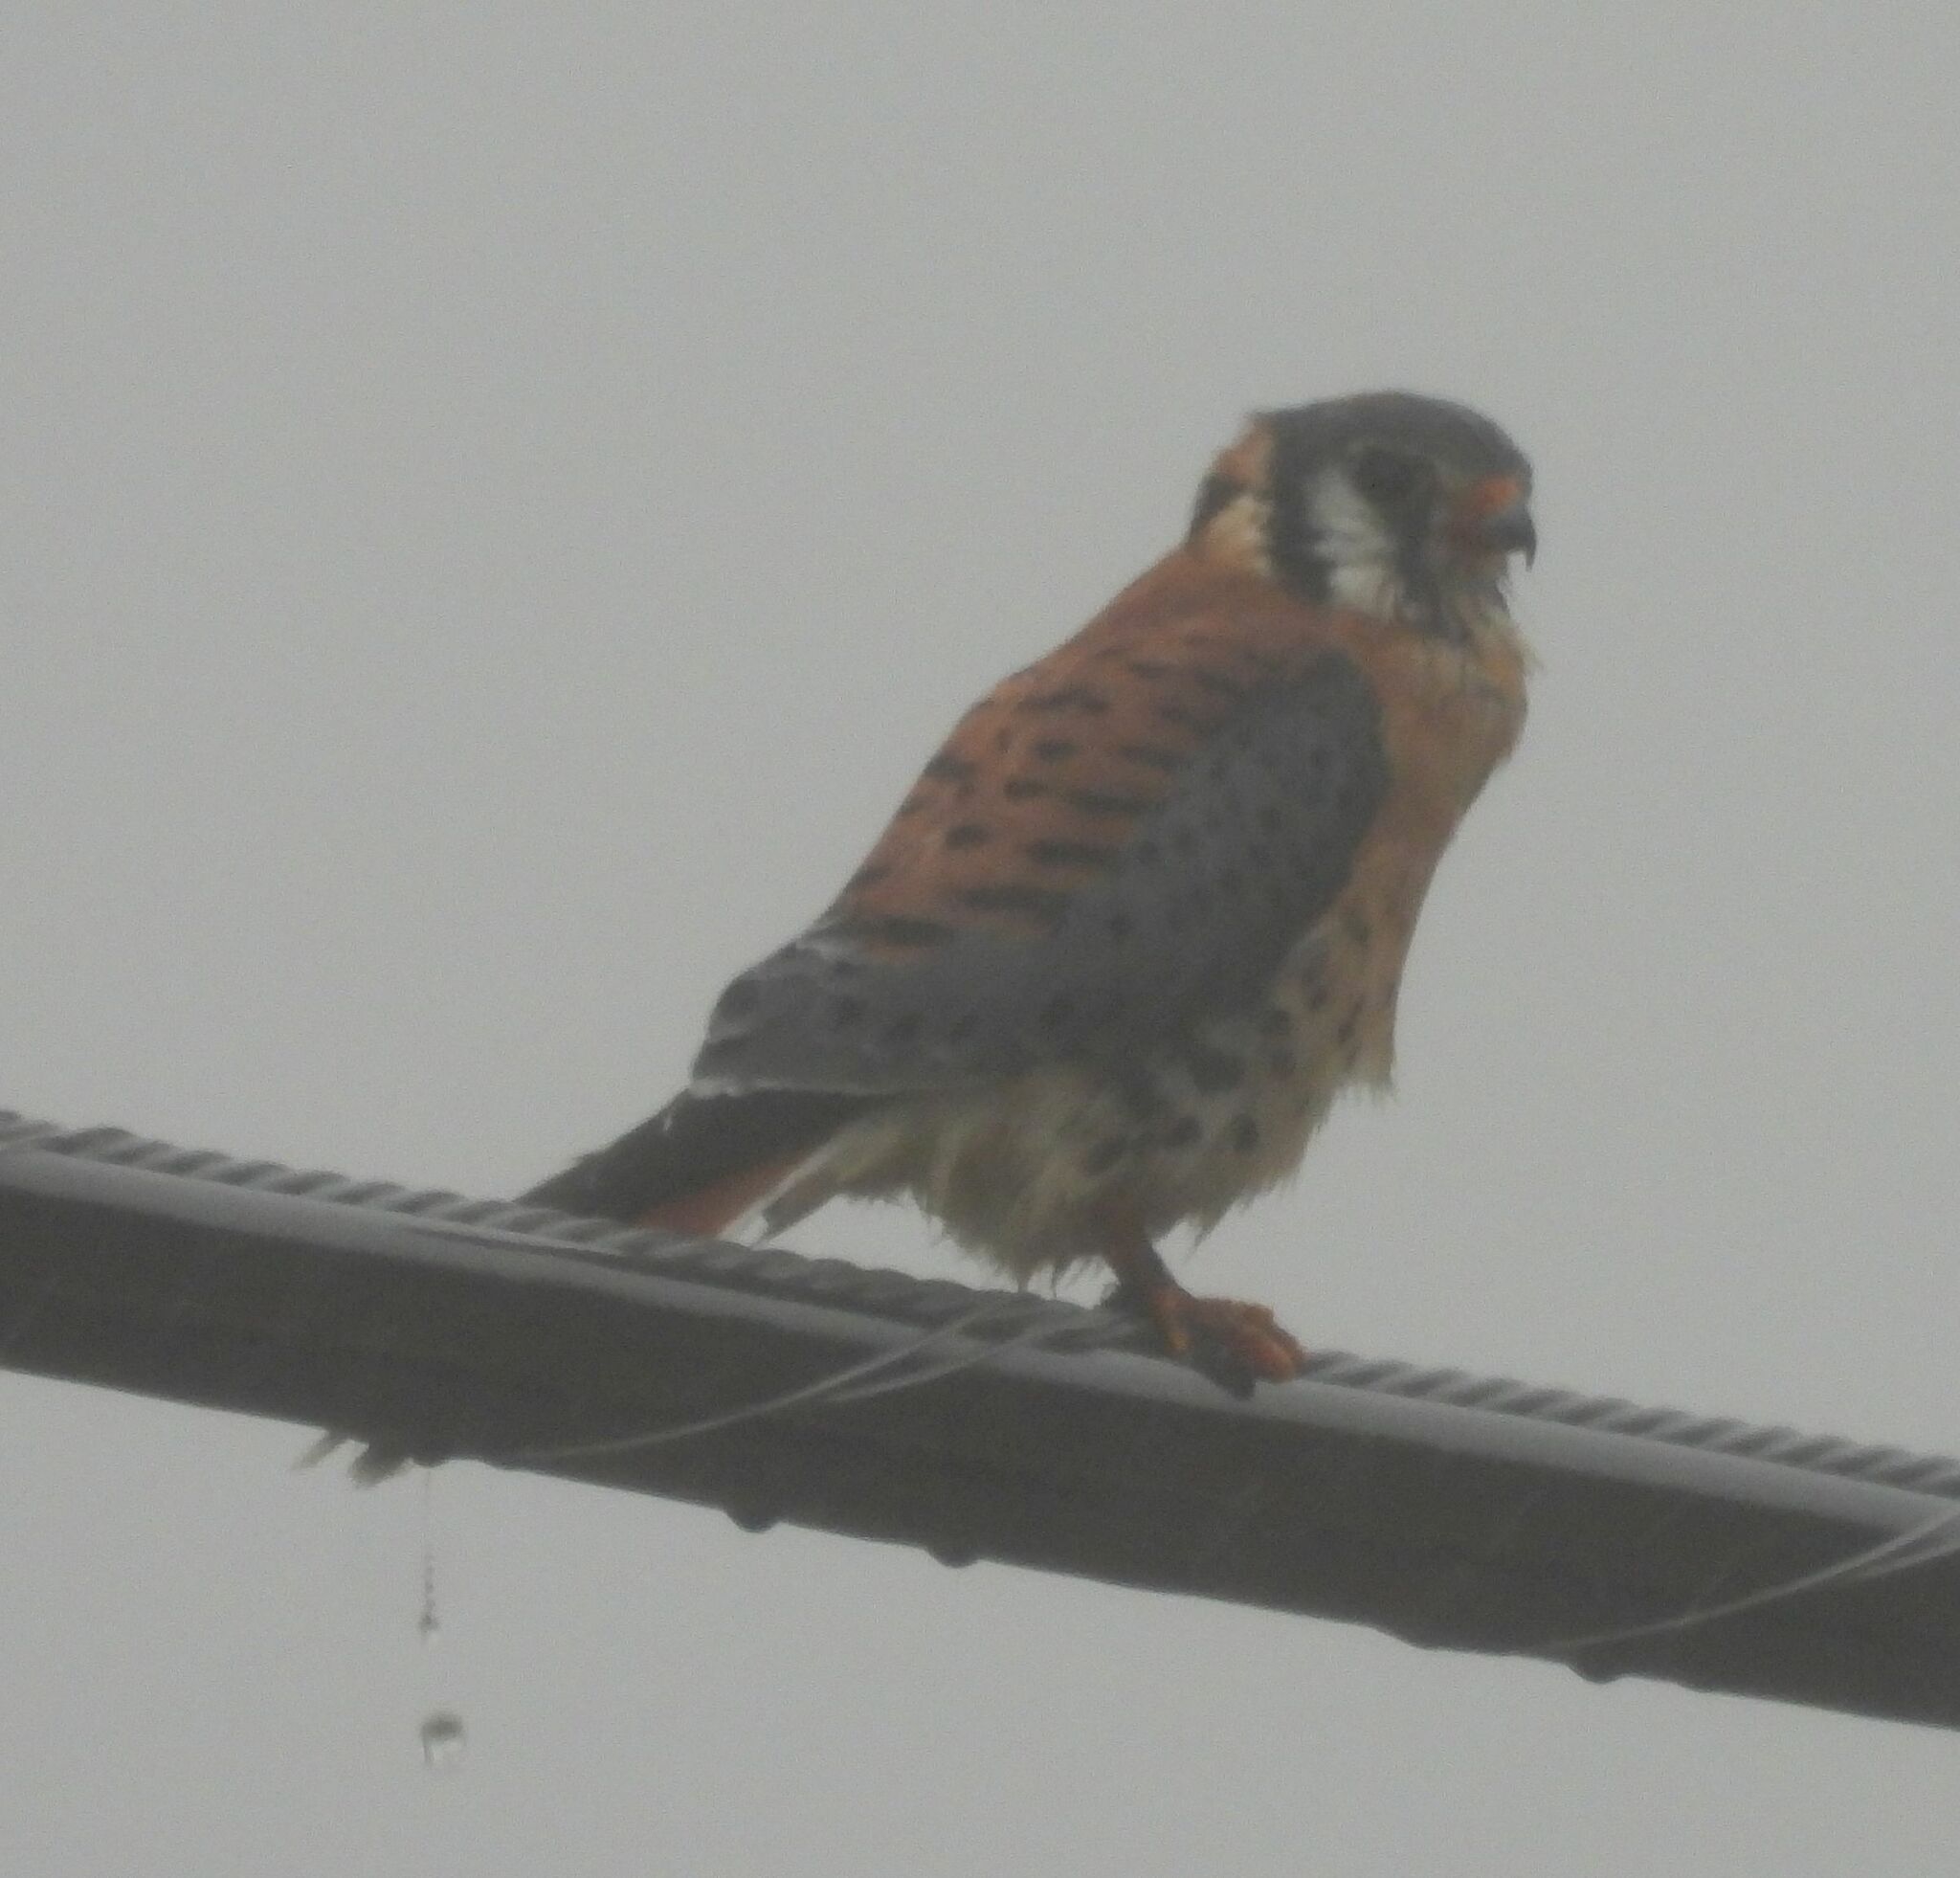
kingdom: Animalia
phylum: Chordata
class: Aves
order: Falconiformes
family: Falconidae
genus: Falco
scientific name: Falco sparverius
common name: American kestrel
